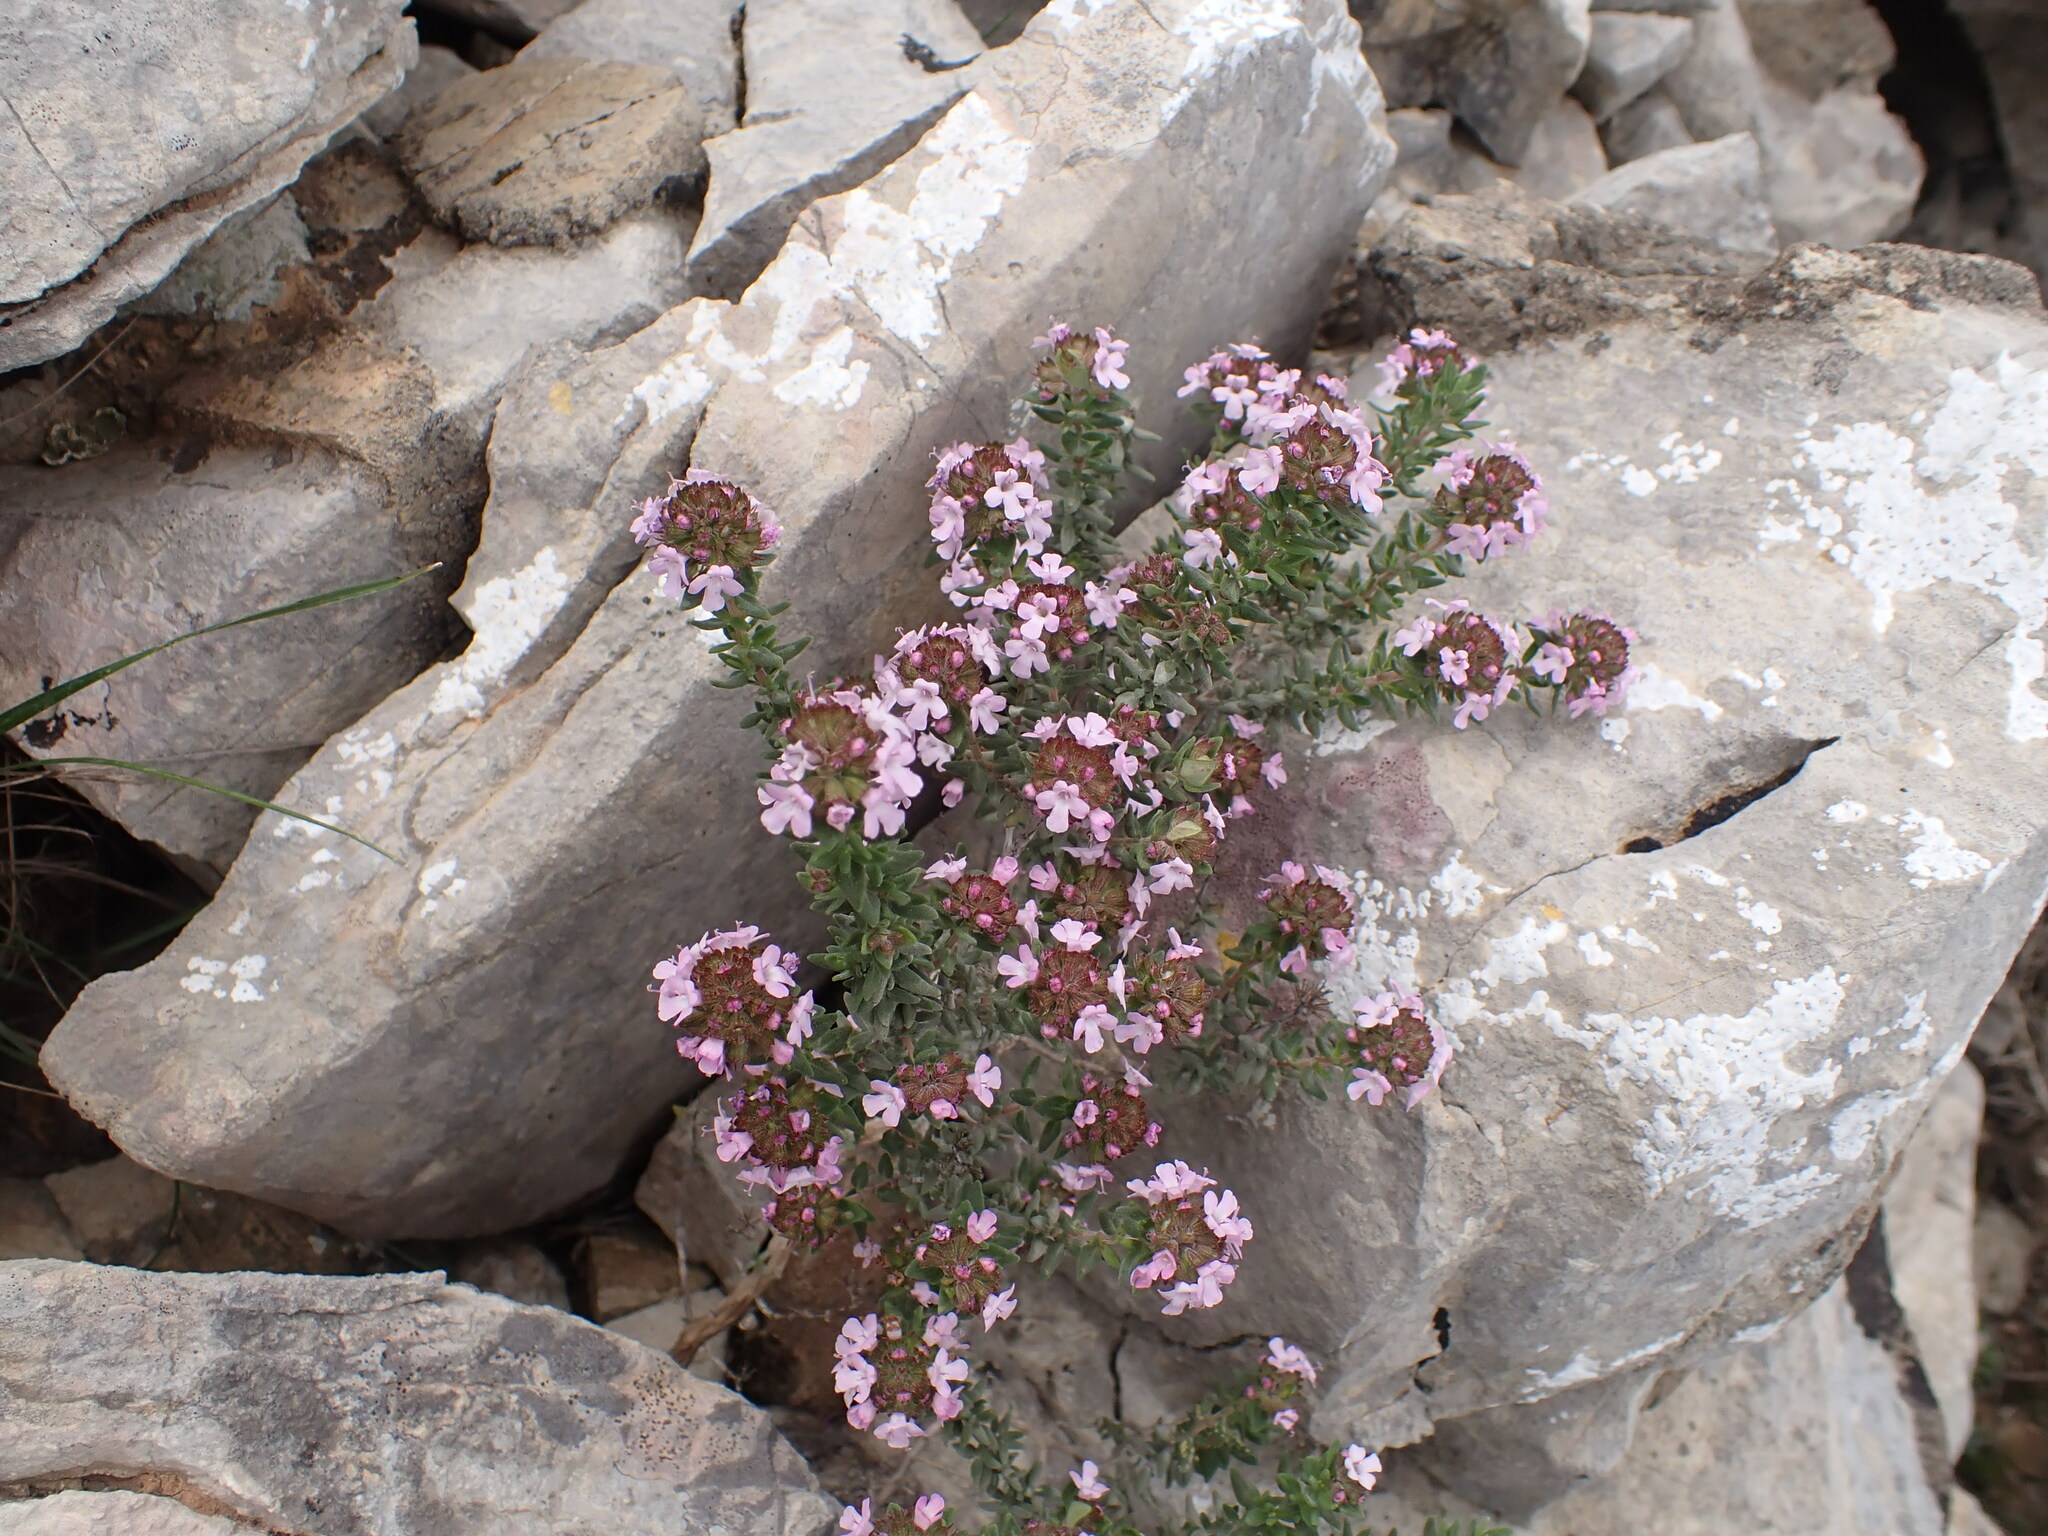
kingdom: Plantae
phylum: Tracheophyta
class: Magnoliopsida
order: Lamiales
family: Lamiaceae
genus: Thymus
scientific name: Thymus vulgaris
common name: Garden thyme
